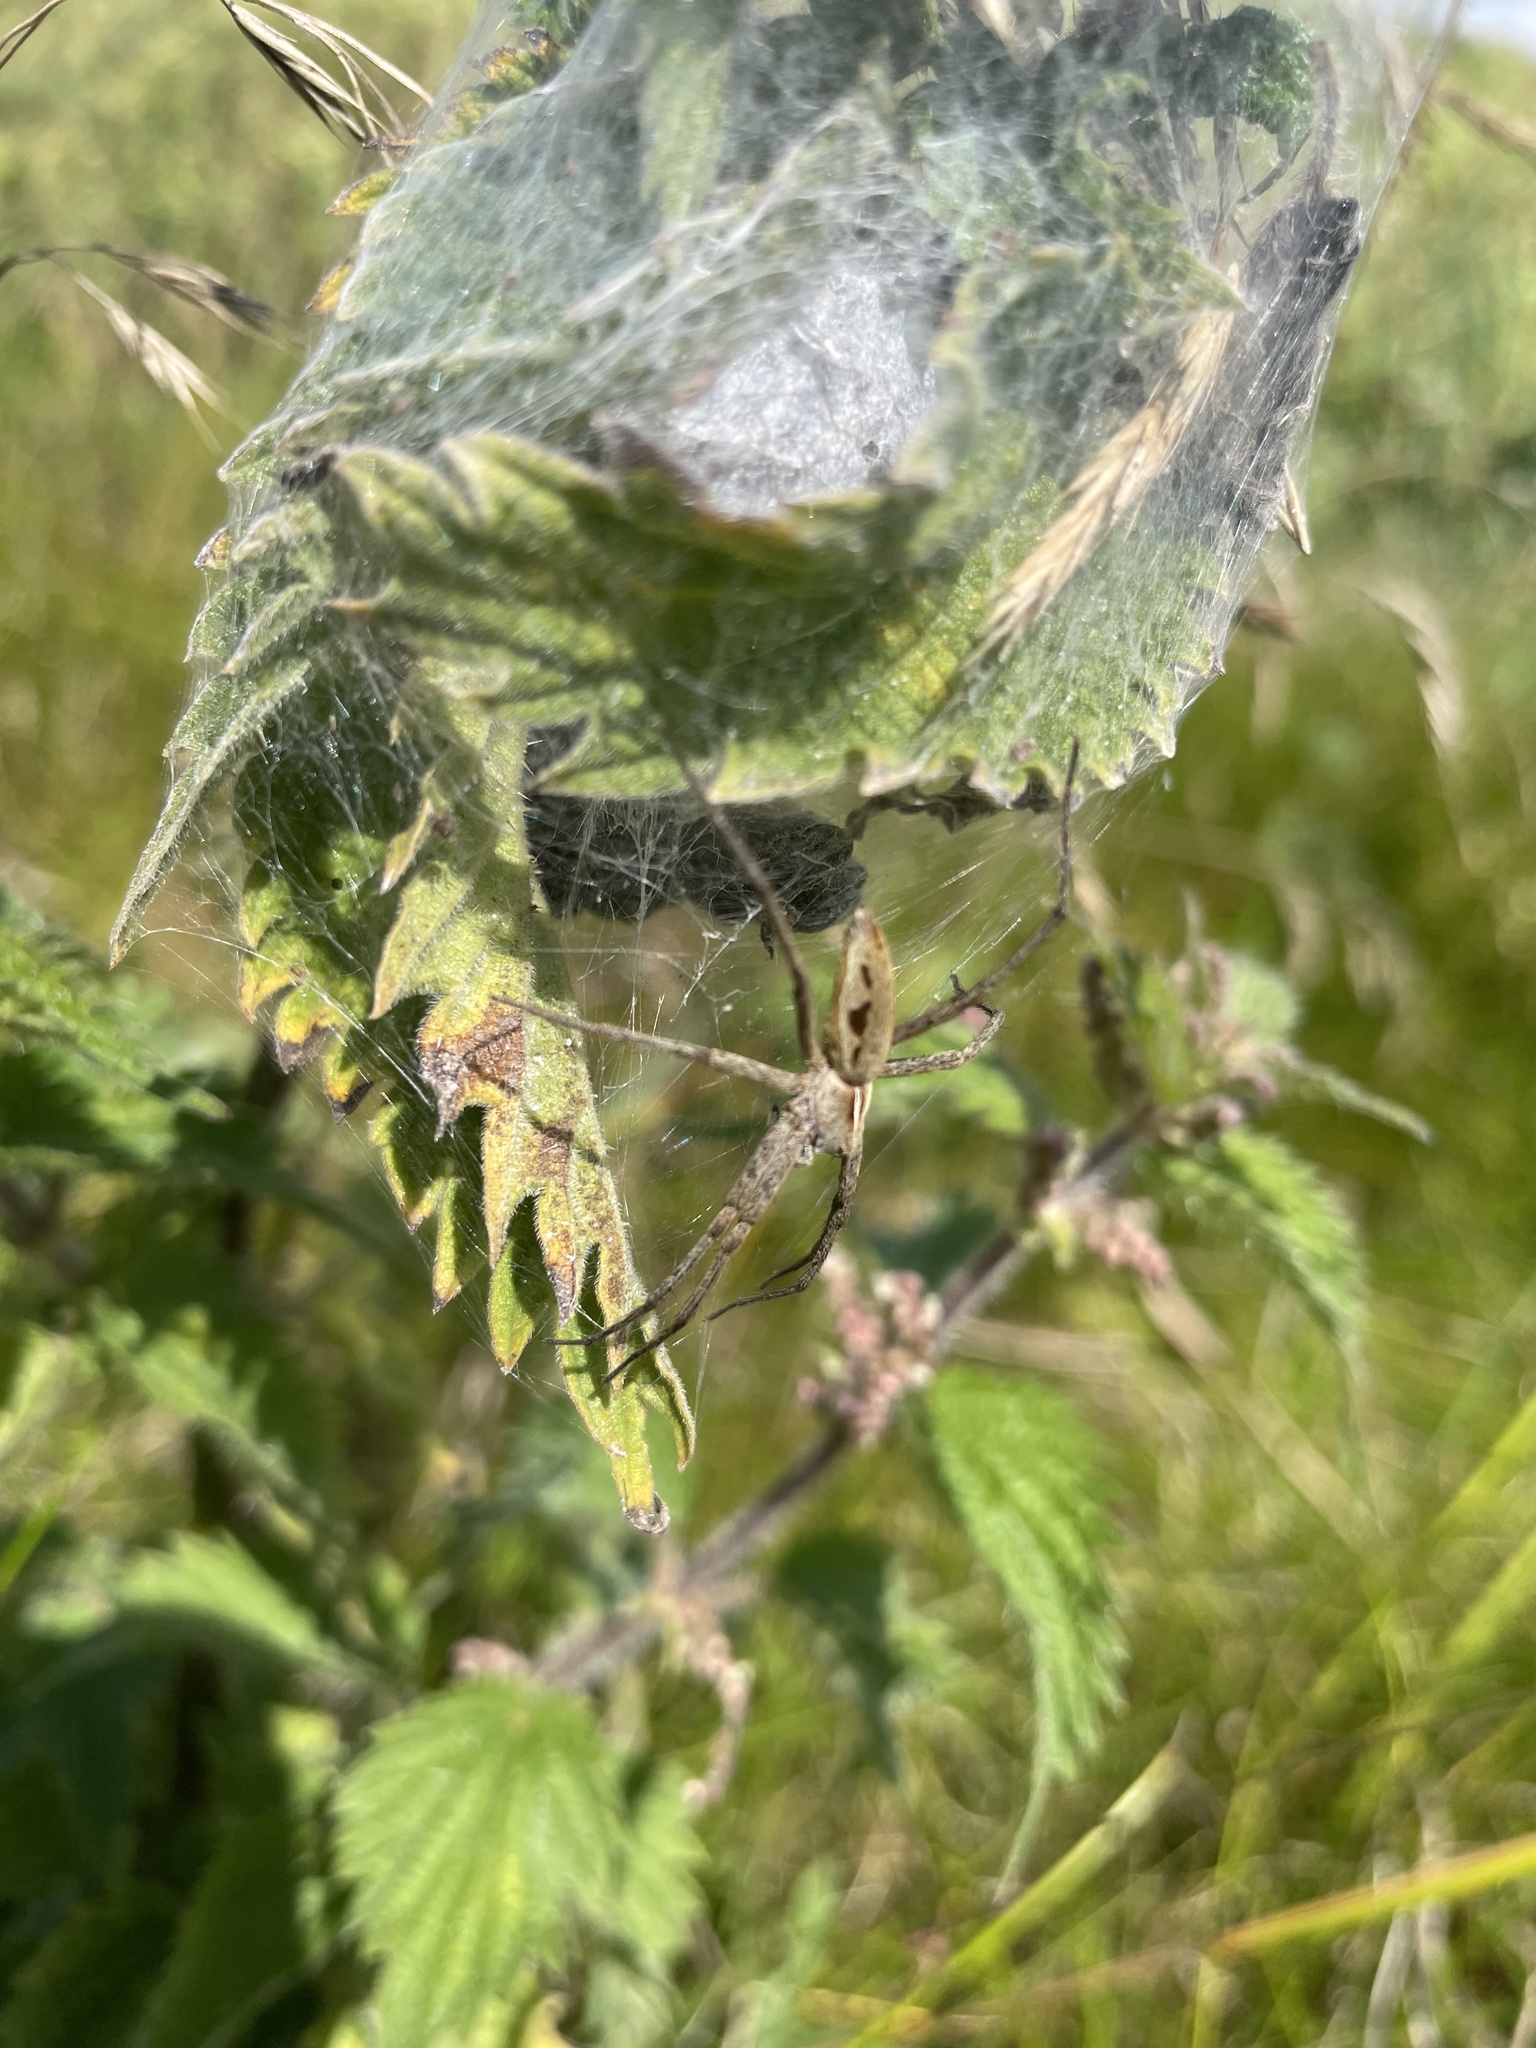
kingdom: Animalia
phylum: Arthropoda
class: Arachnida
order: Araneae
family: Pisauridae
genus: Pisaura
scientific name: Pisaura mirabilis
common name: Tent spider
